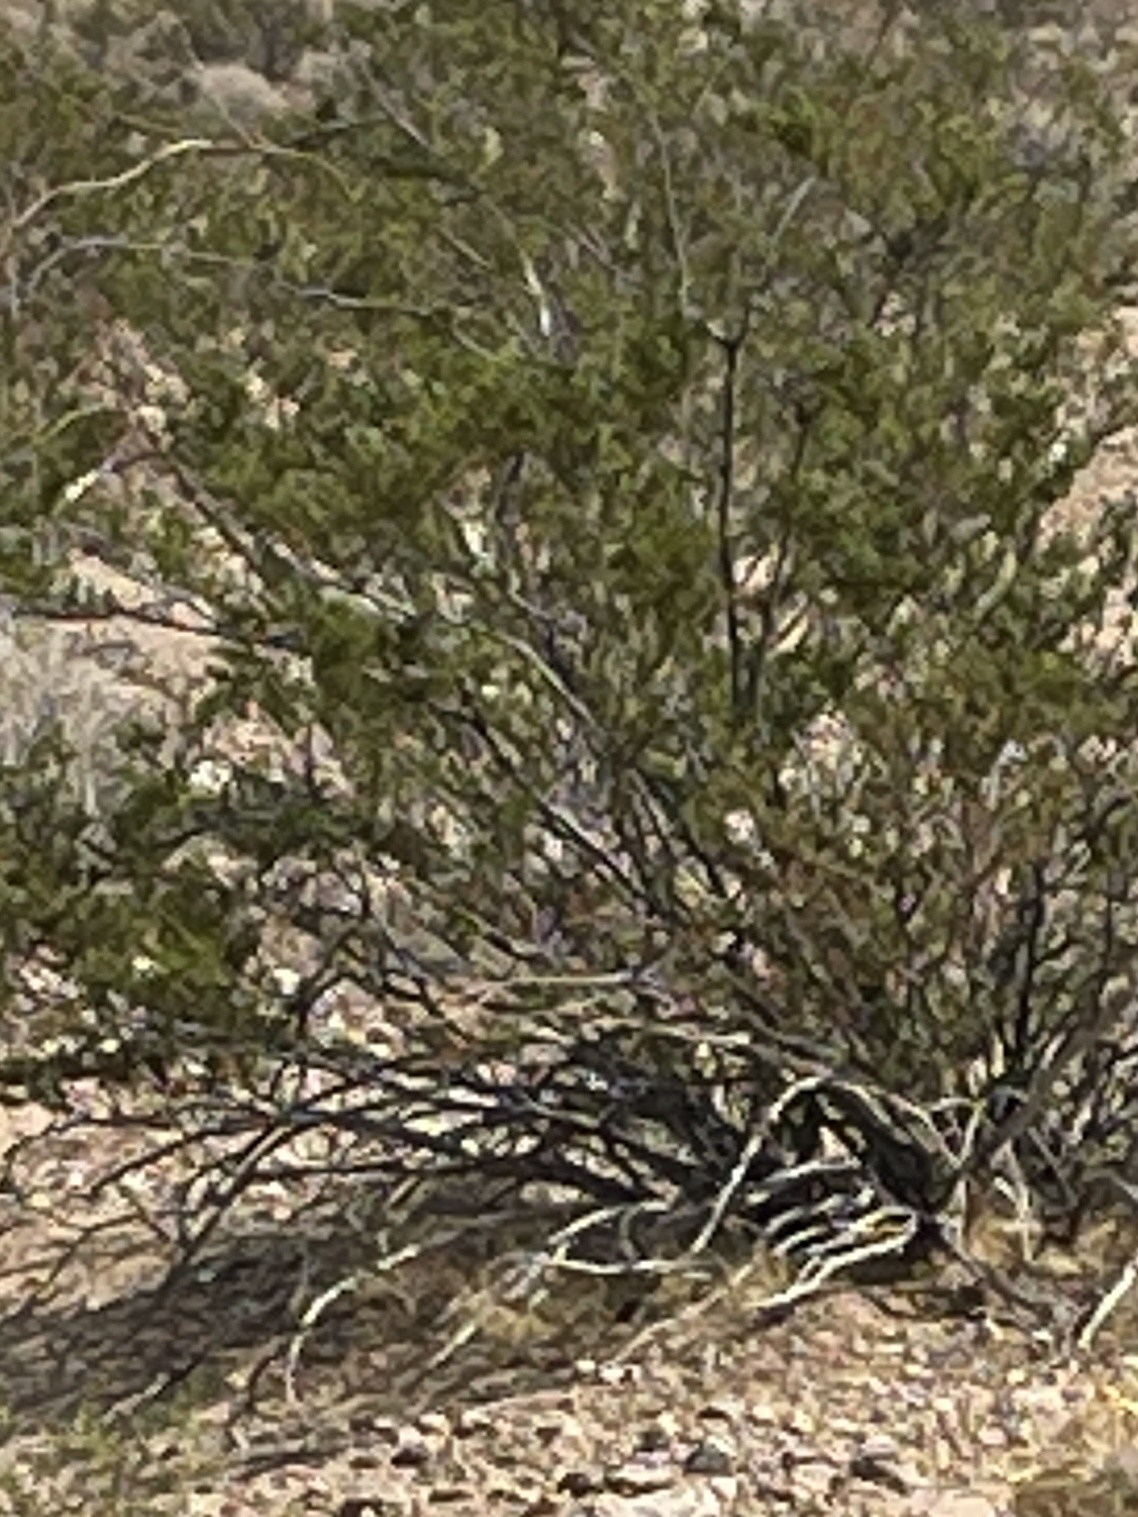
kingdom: Plantae
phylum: Tracheophyta
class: Magnoliopsida
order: Zygophyllales
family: Zygophyllaceae
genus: Larrea
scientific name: Larrea tridentata
